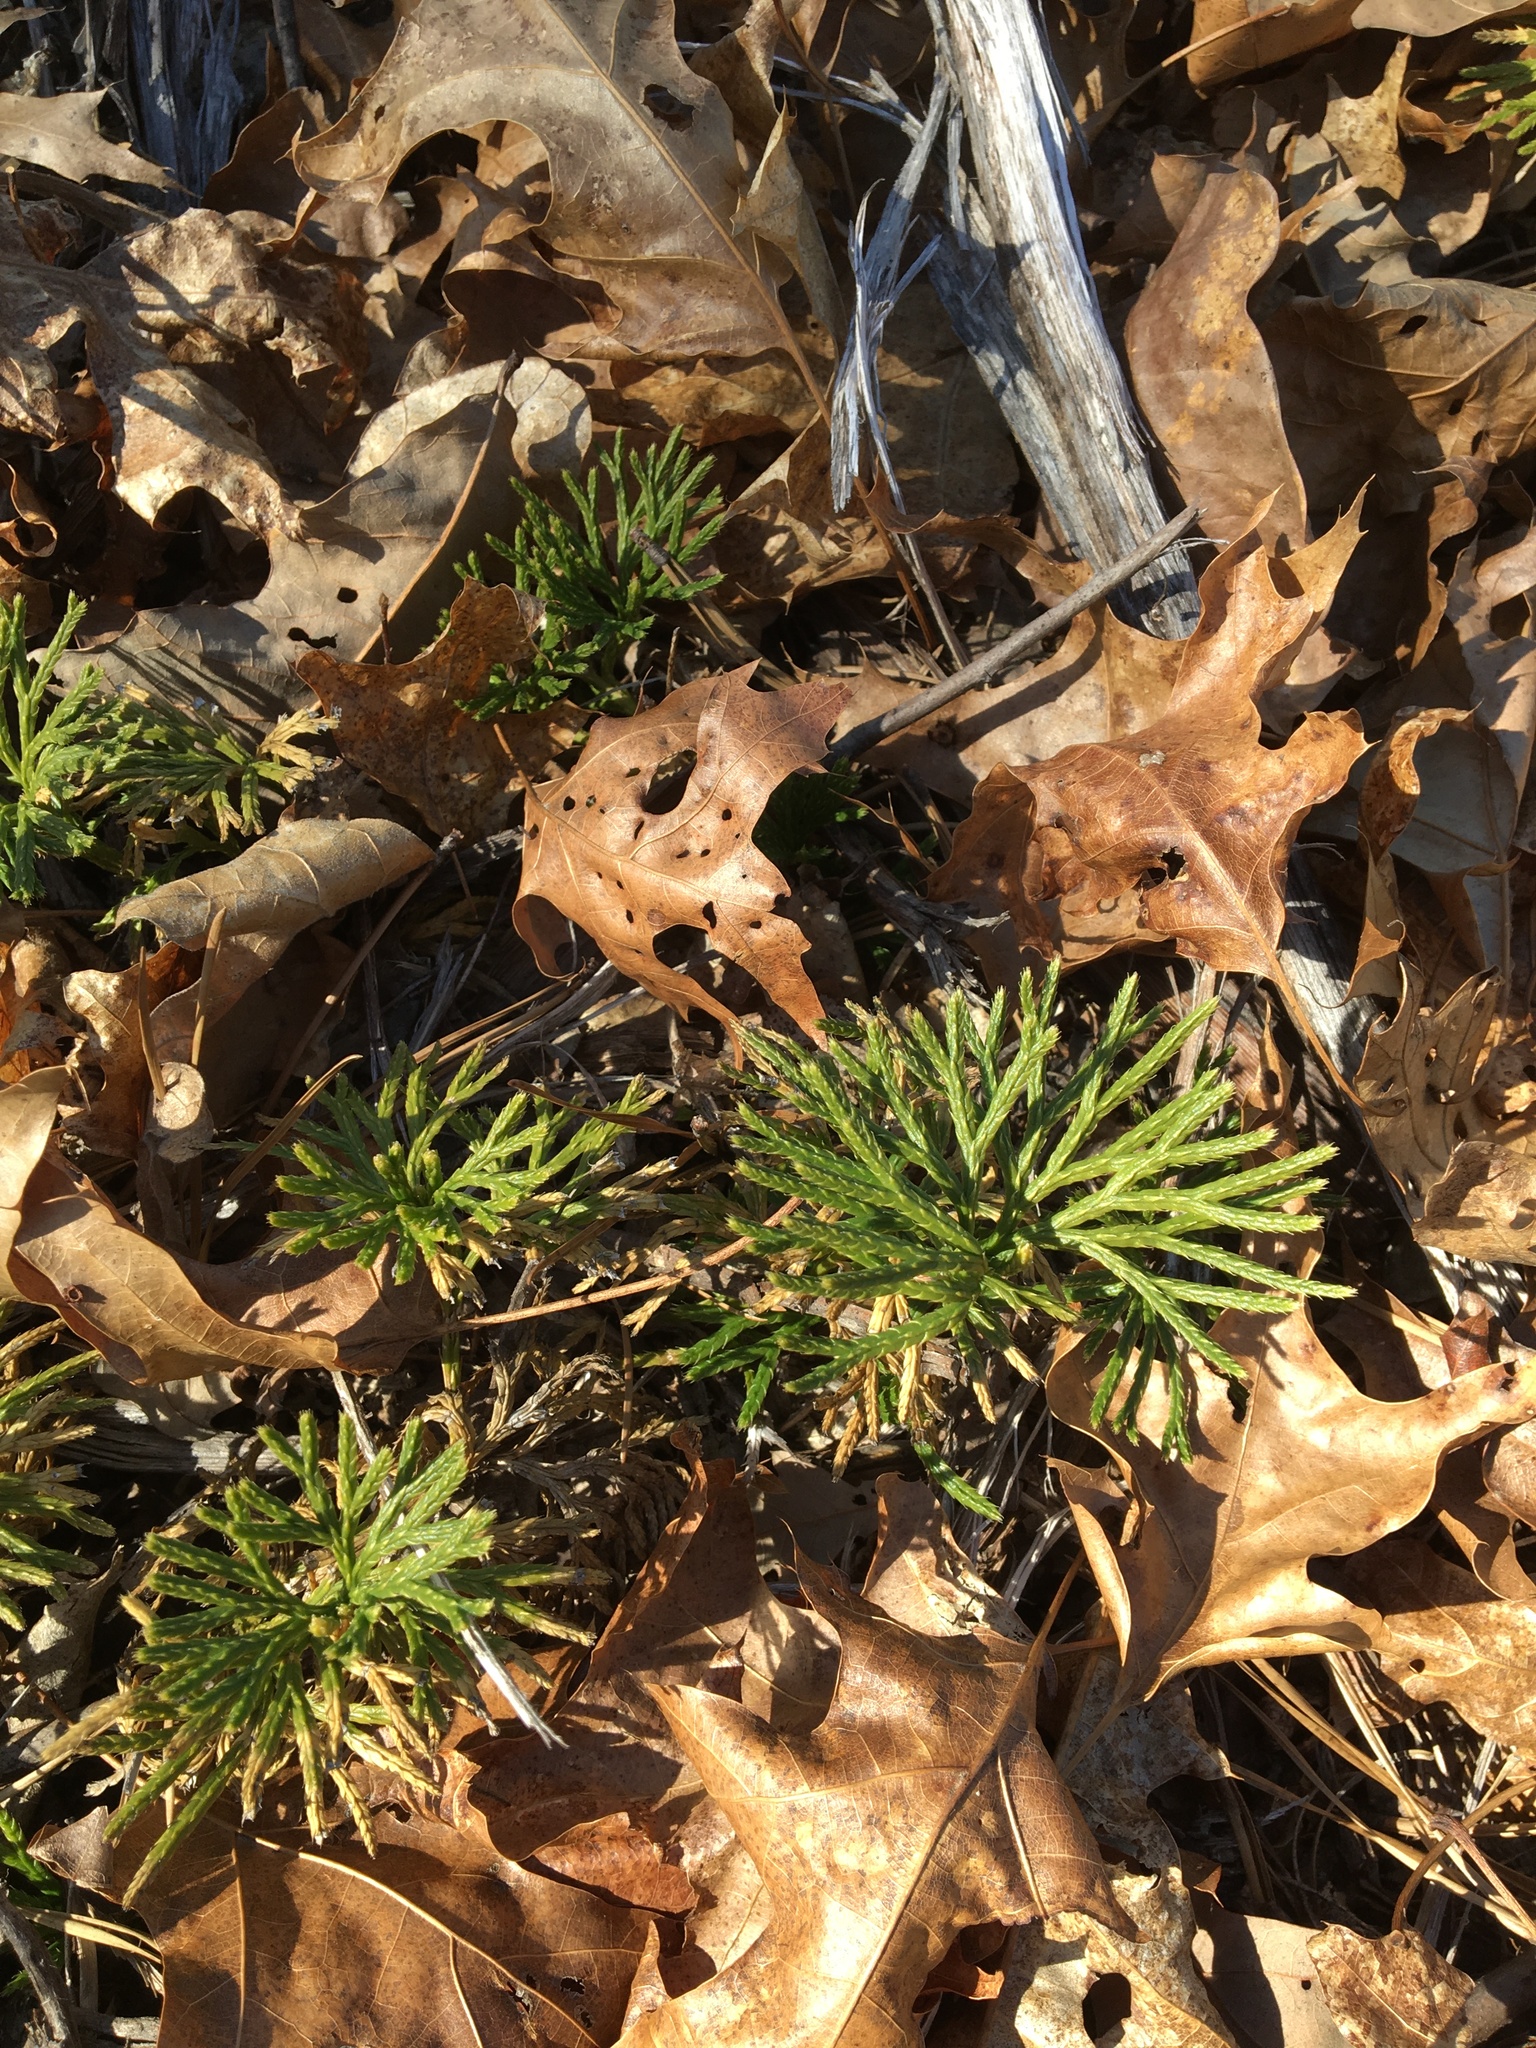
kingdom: Plantae
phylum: Tracheophyta
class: Lycopodiopsida
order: Lycopodiales
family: Lycopodiaceae
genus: Diphasiastrum
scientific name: Diphasiastrum tristachyum
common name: Blue ground-cedar
